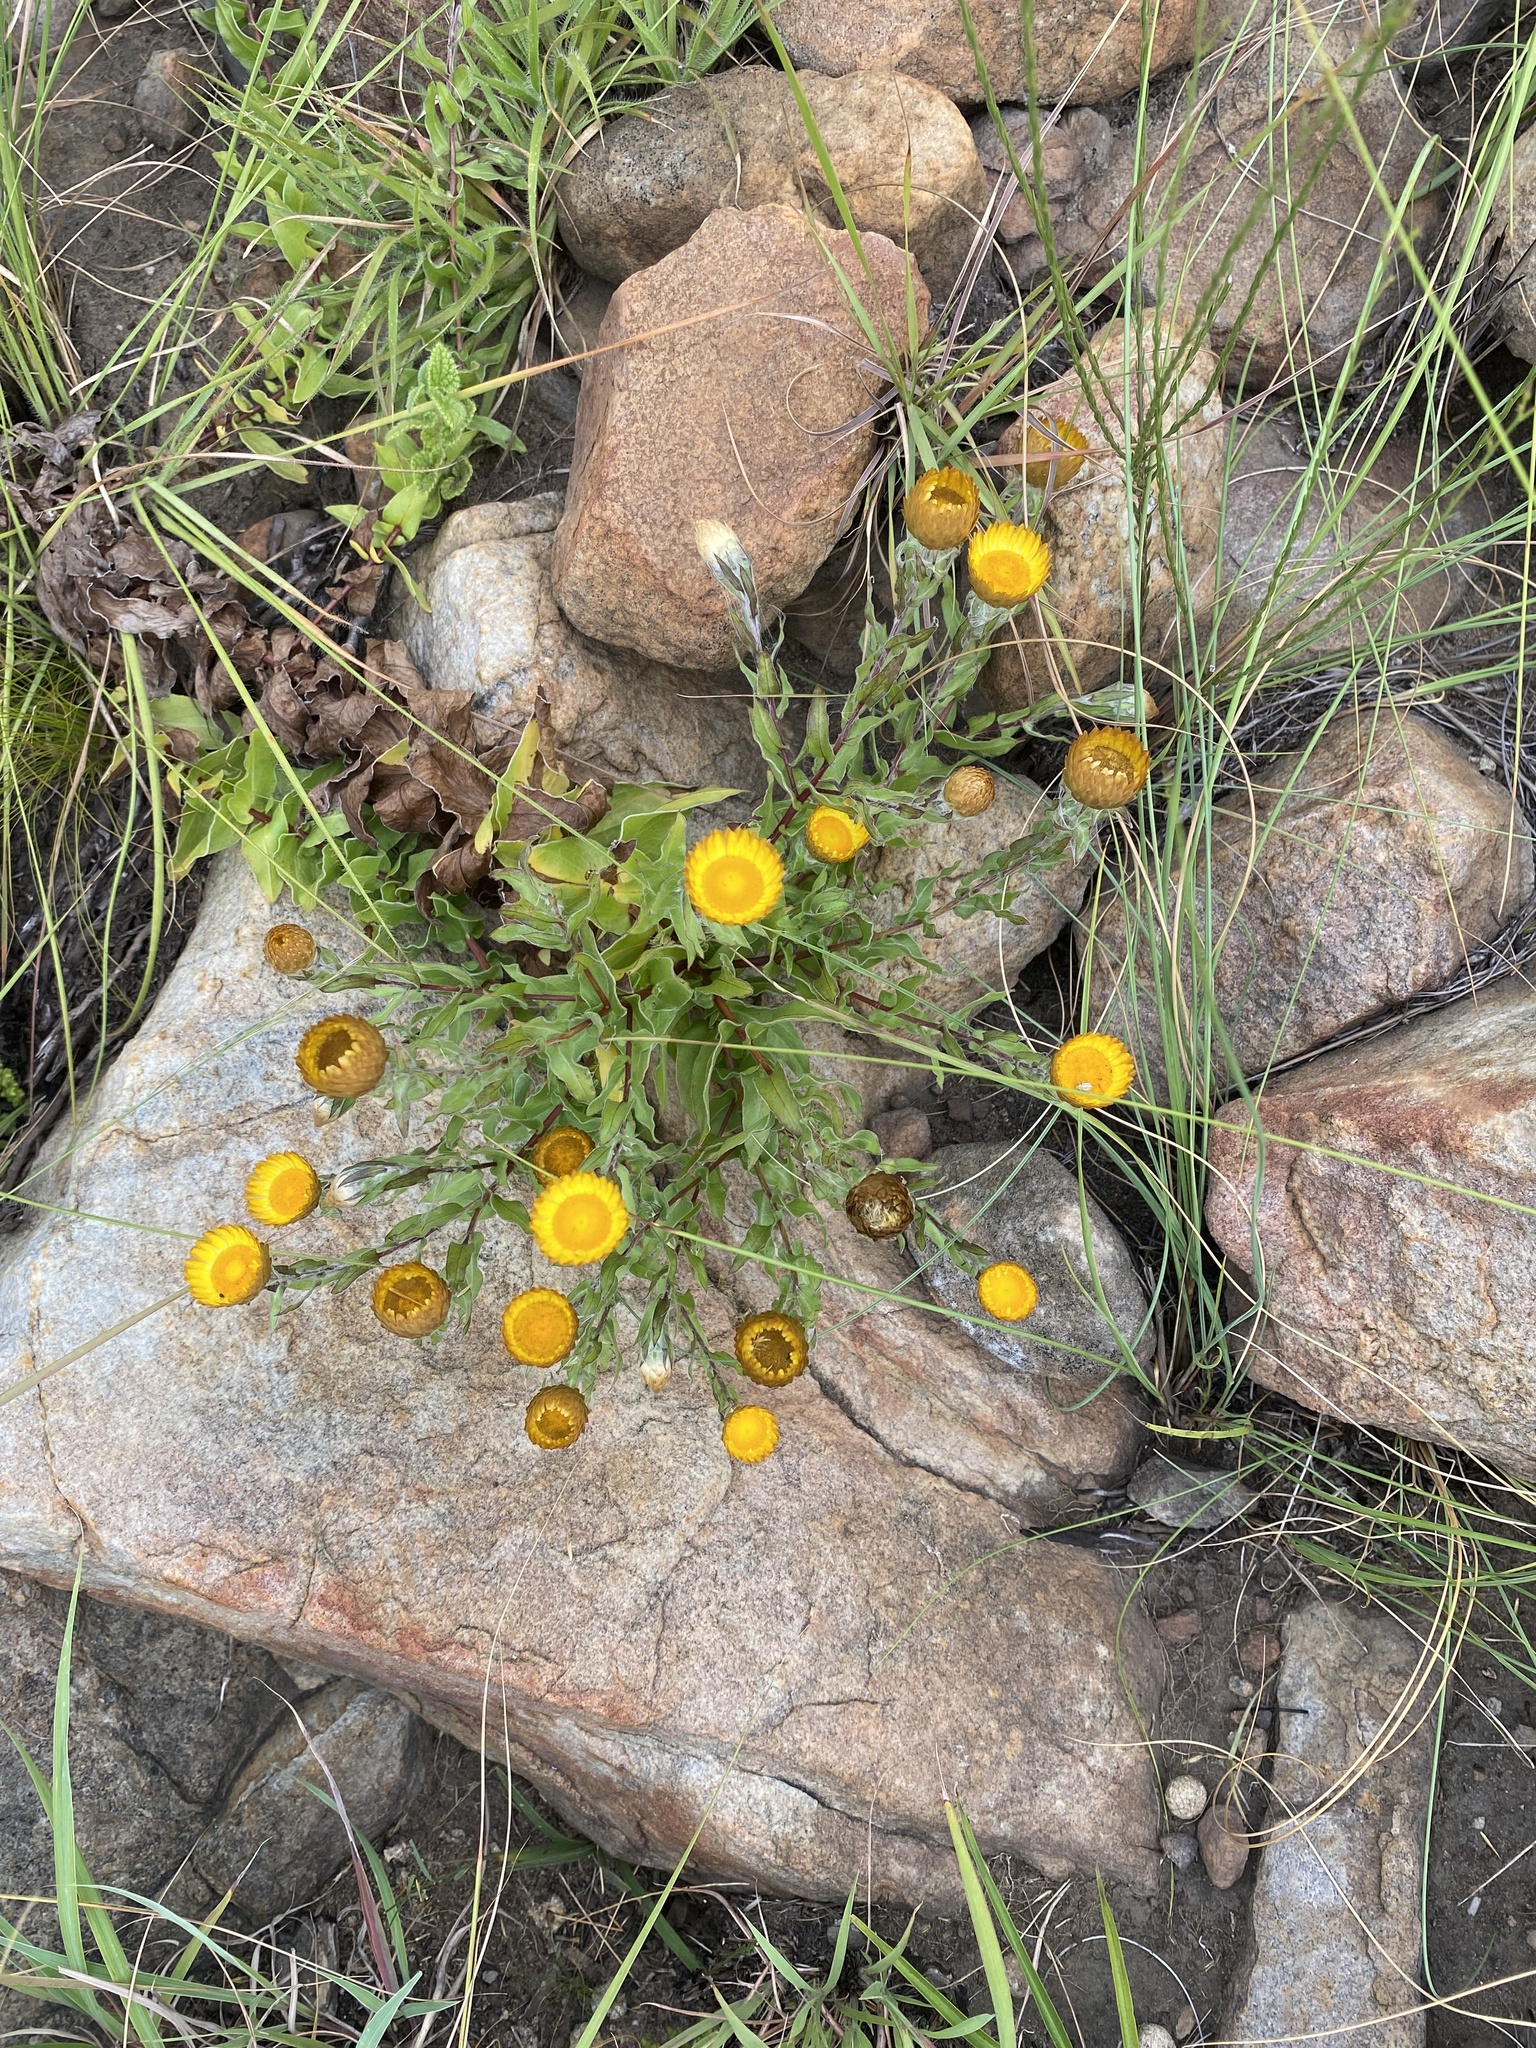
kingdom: Plantae
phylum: Tracheophyta
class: Magnoliopsida
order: Asterales
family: Asteraceae
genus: Helichrysum
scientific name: Helichrysum cooperi
